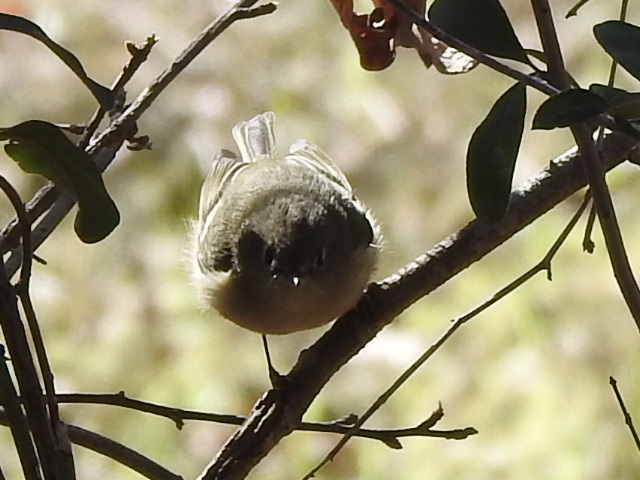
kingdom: Animalia
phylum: Chordata
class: Aves
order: Passeriformes
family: Regulidae
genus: Regulus
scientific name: Regulus calendula
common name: Ruby-crowned kinglet
